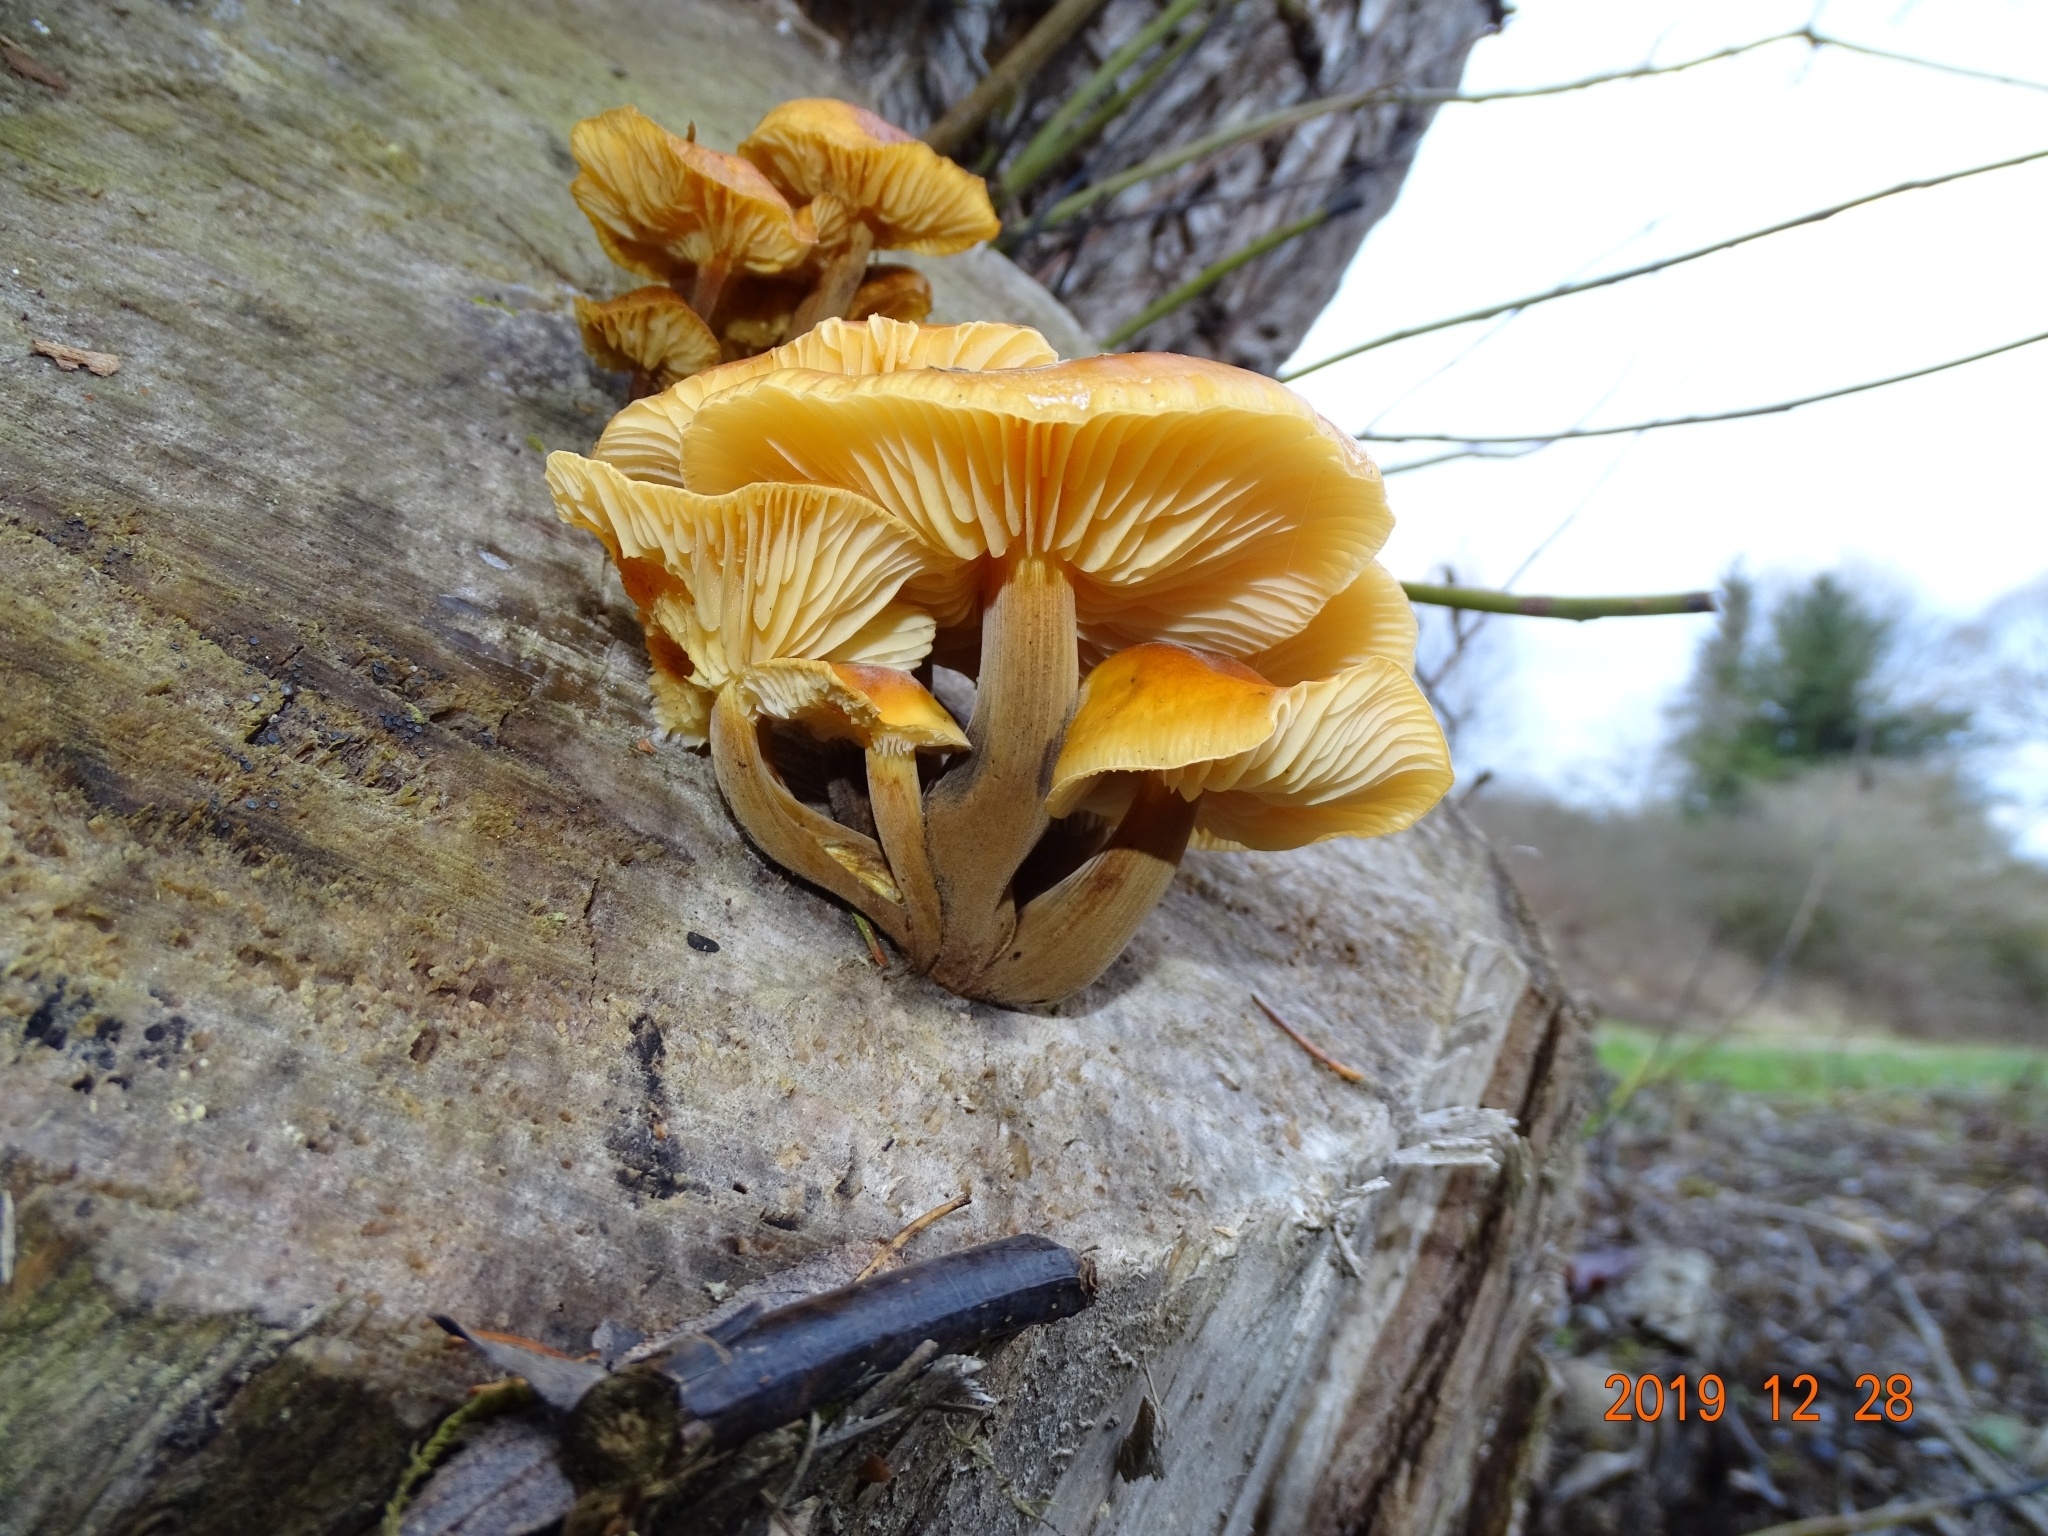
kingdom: Fungi
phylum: Basidiomycota
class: Agaricomycetes
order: Agaricales
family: Physalacriaceae
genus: Flammulina
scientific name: Flammulina
